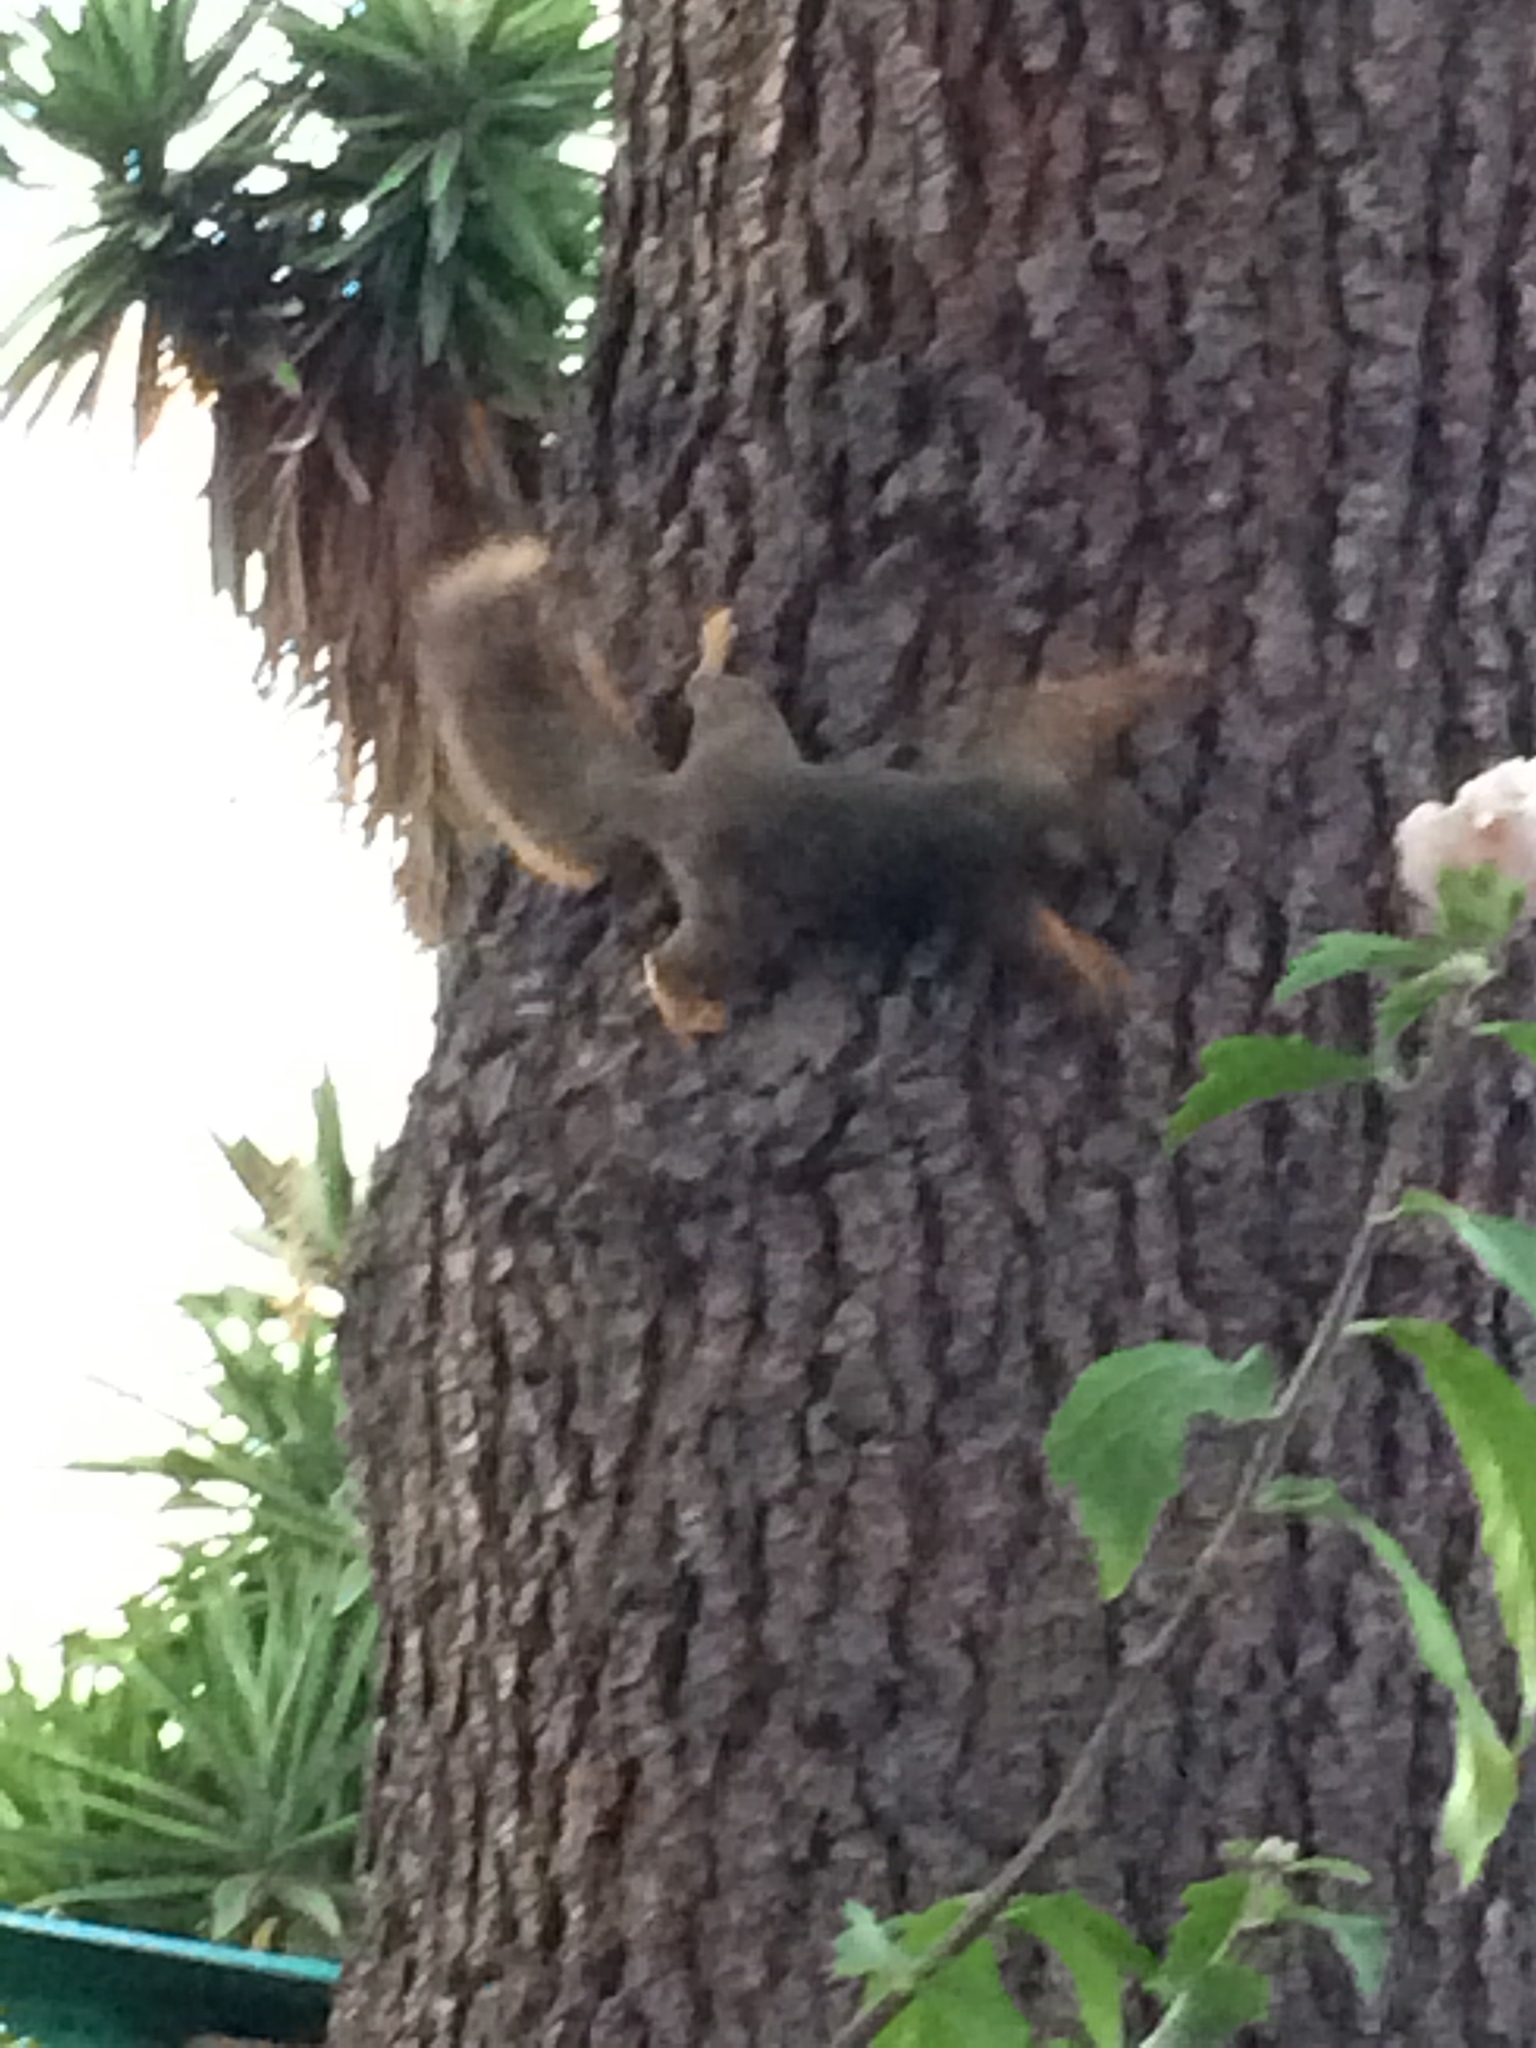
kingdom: Animalia
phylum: Chordata
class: Mammalia
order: Rodentia
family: Sciuridae
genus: Sciurus
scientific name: Sciurus niger
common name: Fox squirrel
